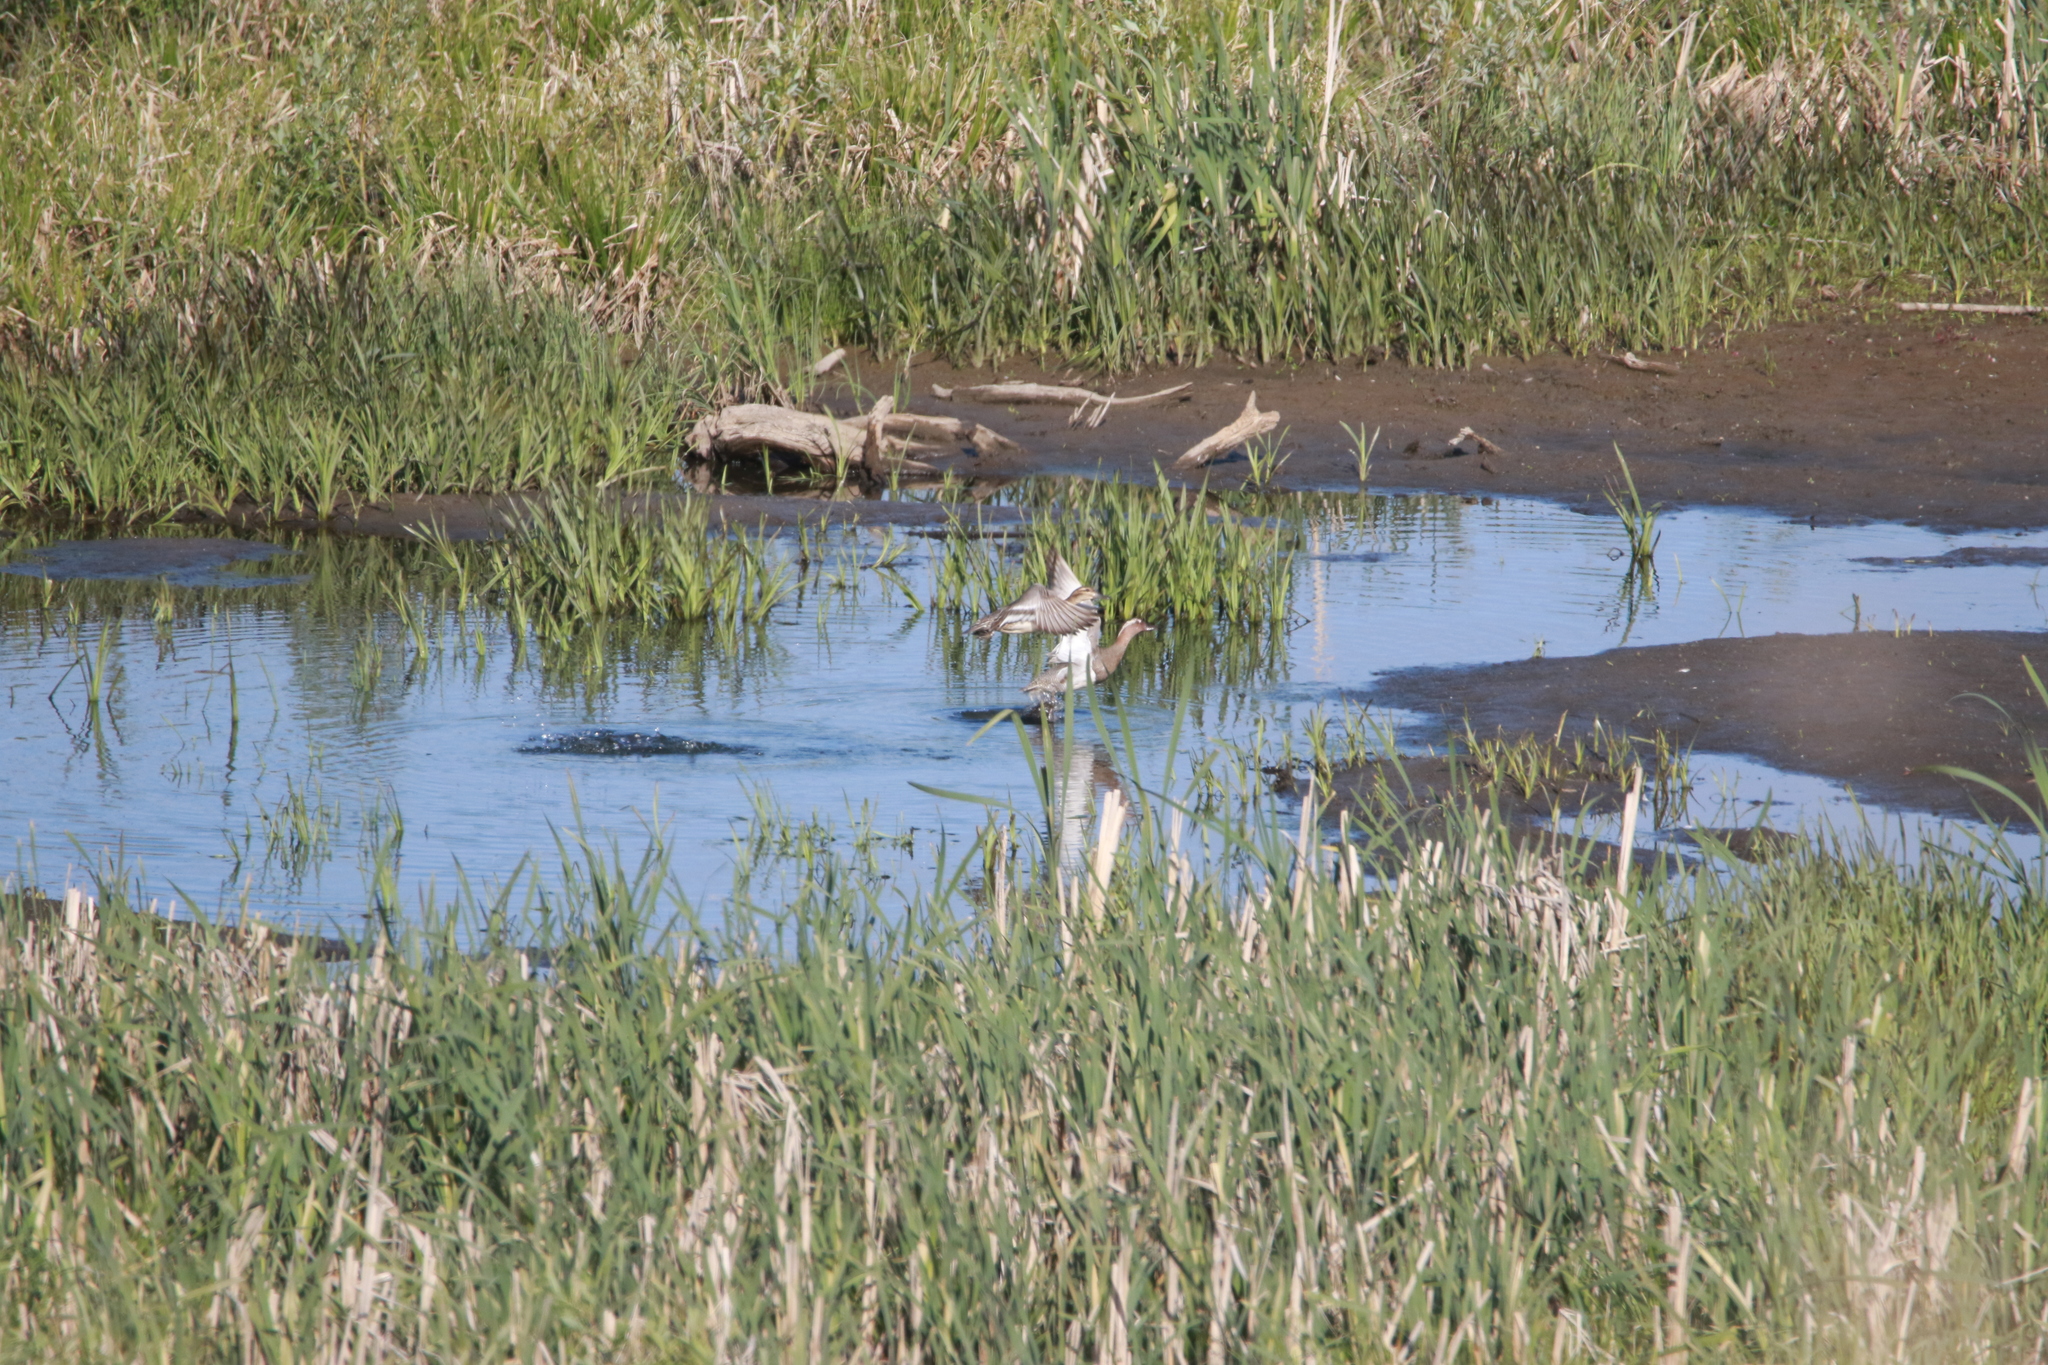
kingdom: Animalia
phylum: Chordata
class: Aves
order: Anseriformes
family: Anatidae
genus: Spatula
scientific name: Spatula querquedula
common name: Garganey
